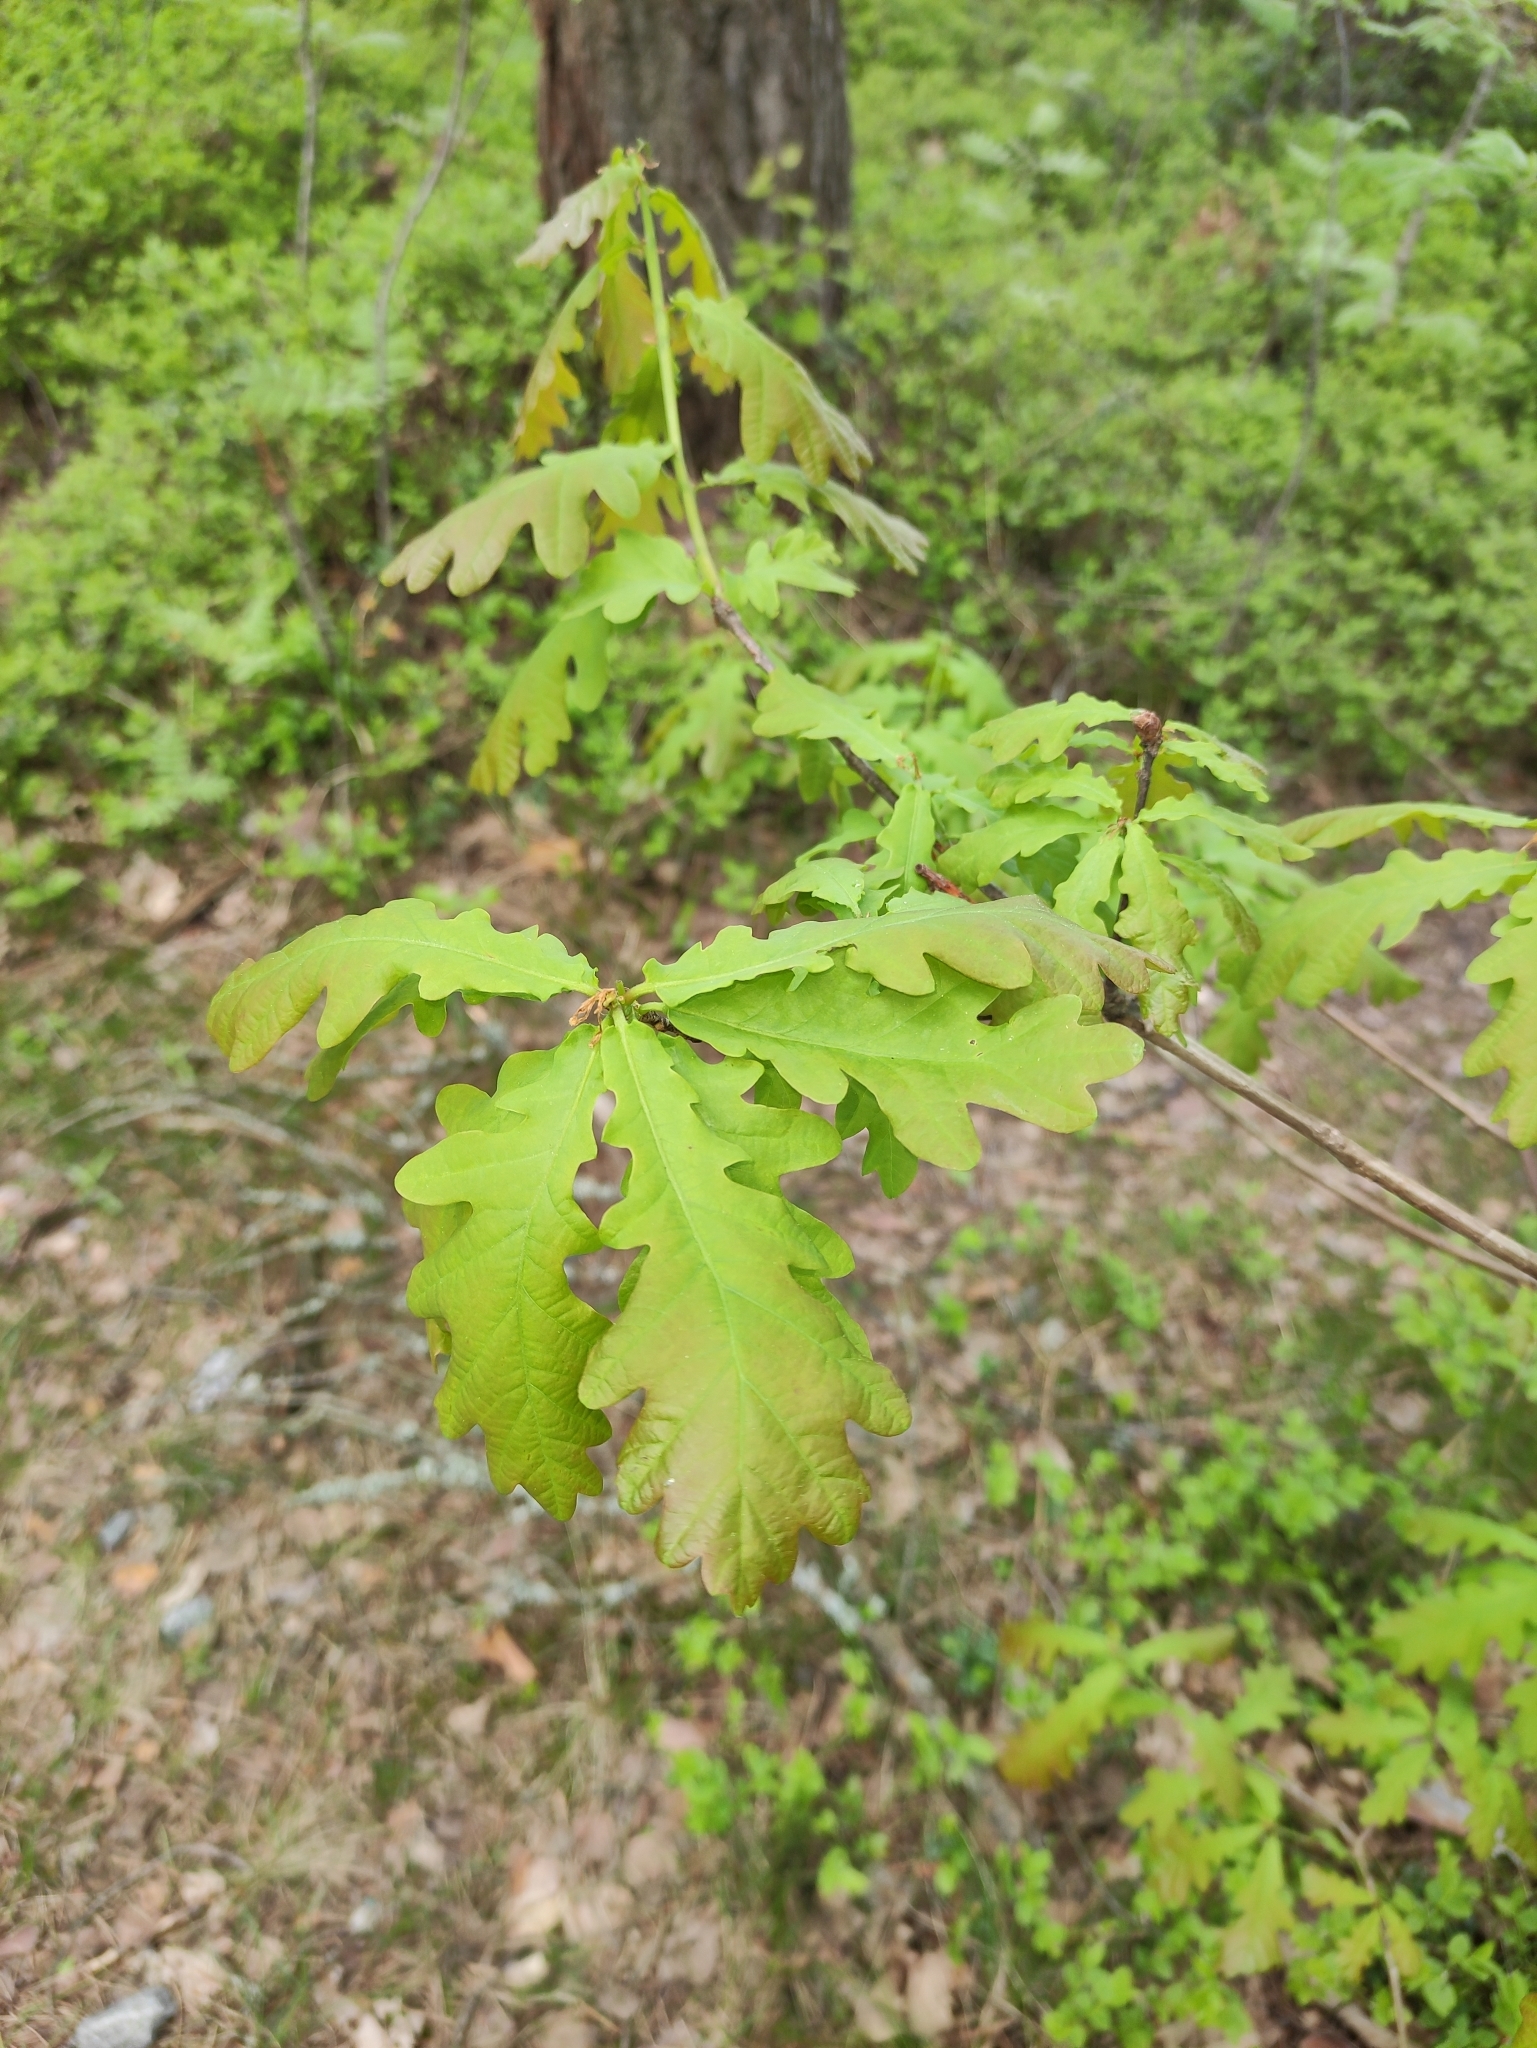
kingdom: Plantae
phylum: Tracheophyta
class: Magnoliopsida
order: Fagales
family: Fagaceae
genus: Quercus
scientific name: Quercus robur
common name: Pedunculate oak
